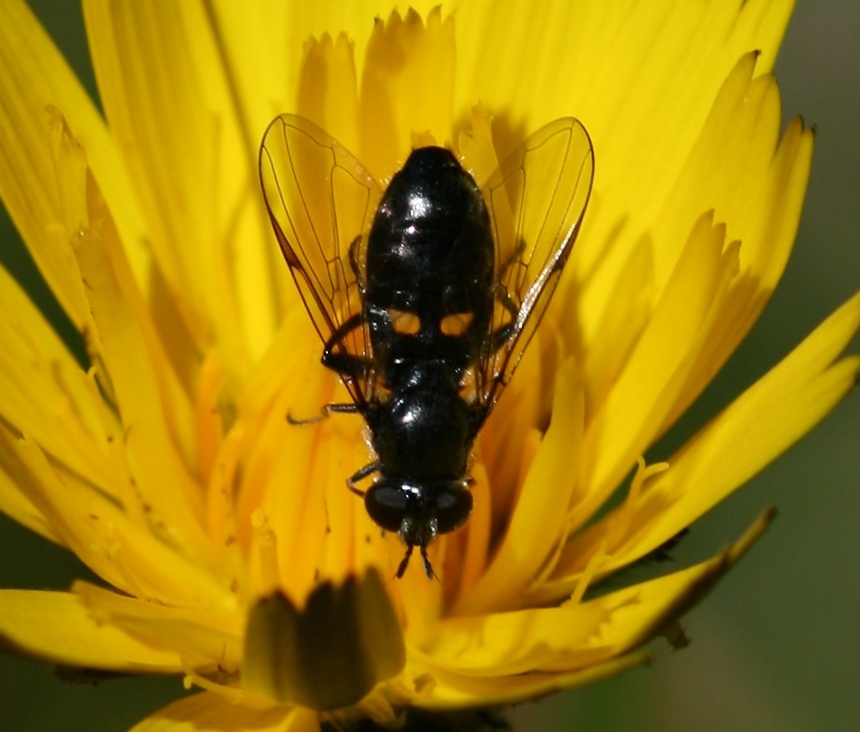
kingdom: Animalia
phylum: Arthropoda
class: Insecta
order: Diptera
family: Syrphidae
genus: Pipiza
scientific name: Pipiza
